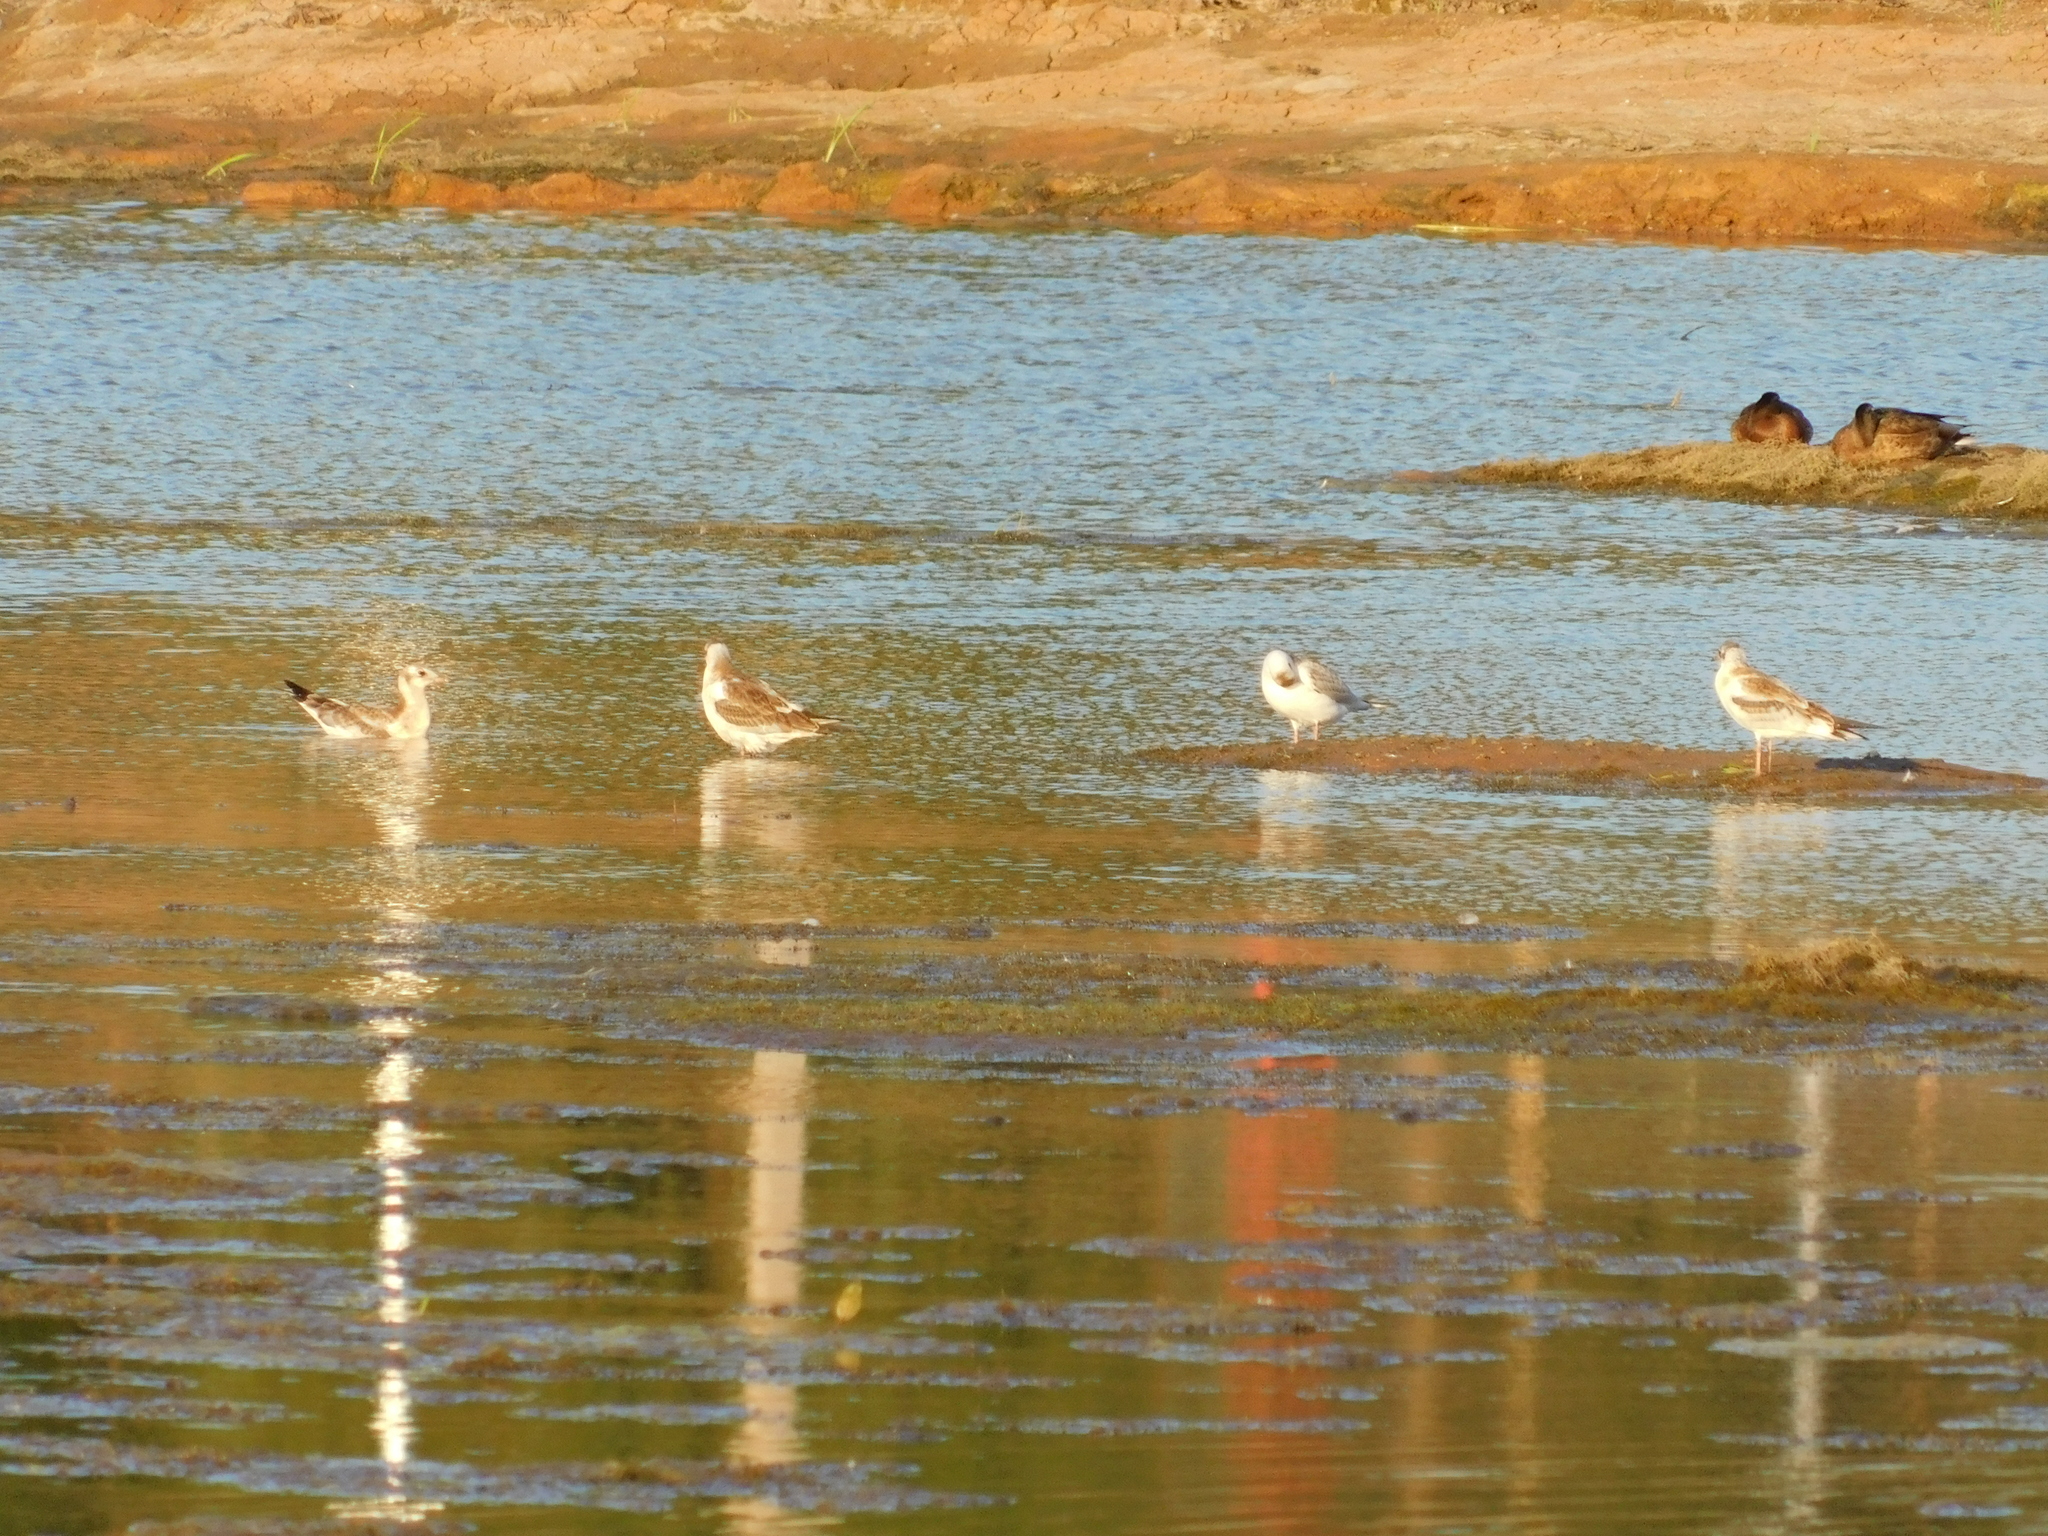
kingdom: Animalia
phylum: Chordata
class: Aves
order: Charadriiformes
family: Laridae
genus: Chroicocephalus
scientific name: Chroicocephalus ridibundus
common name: Black-headed gull
